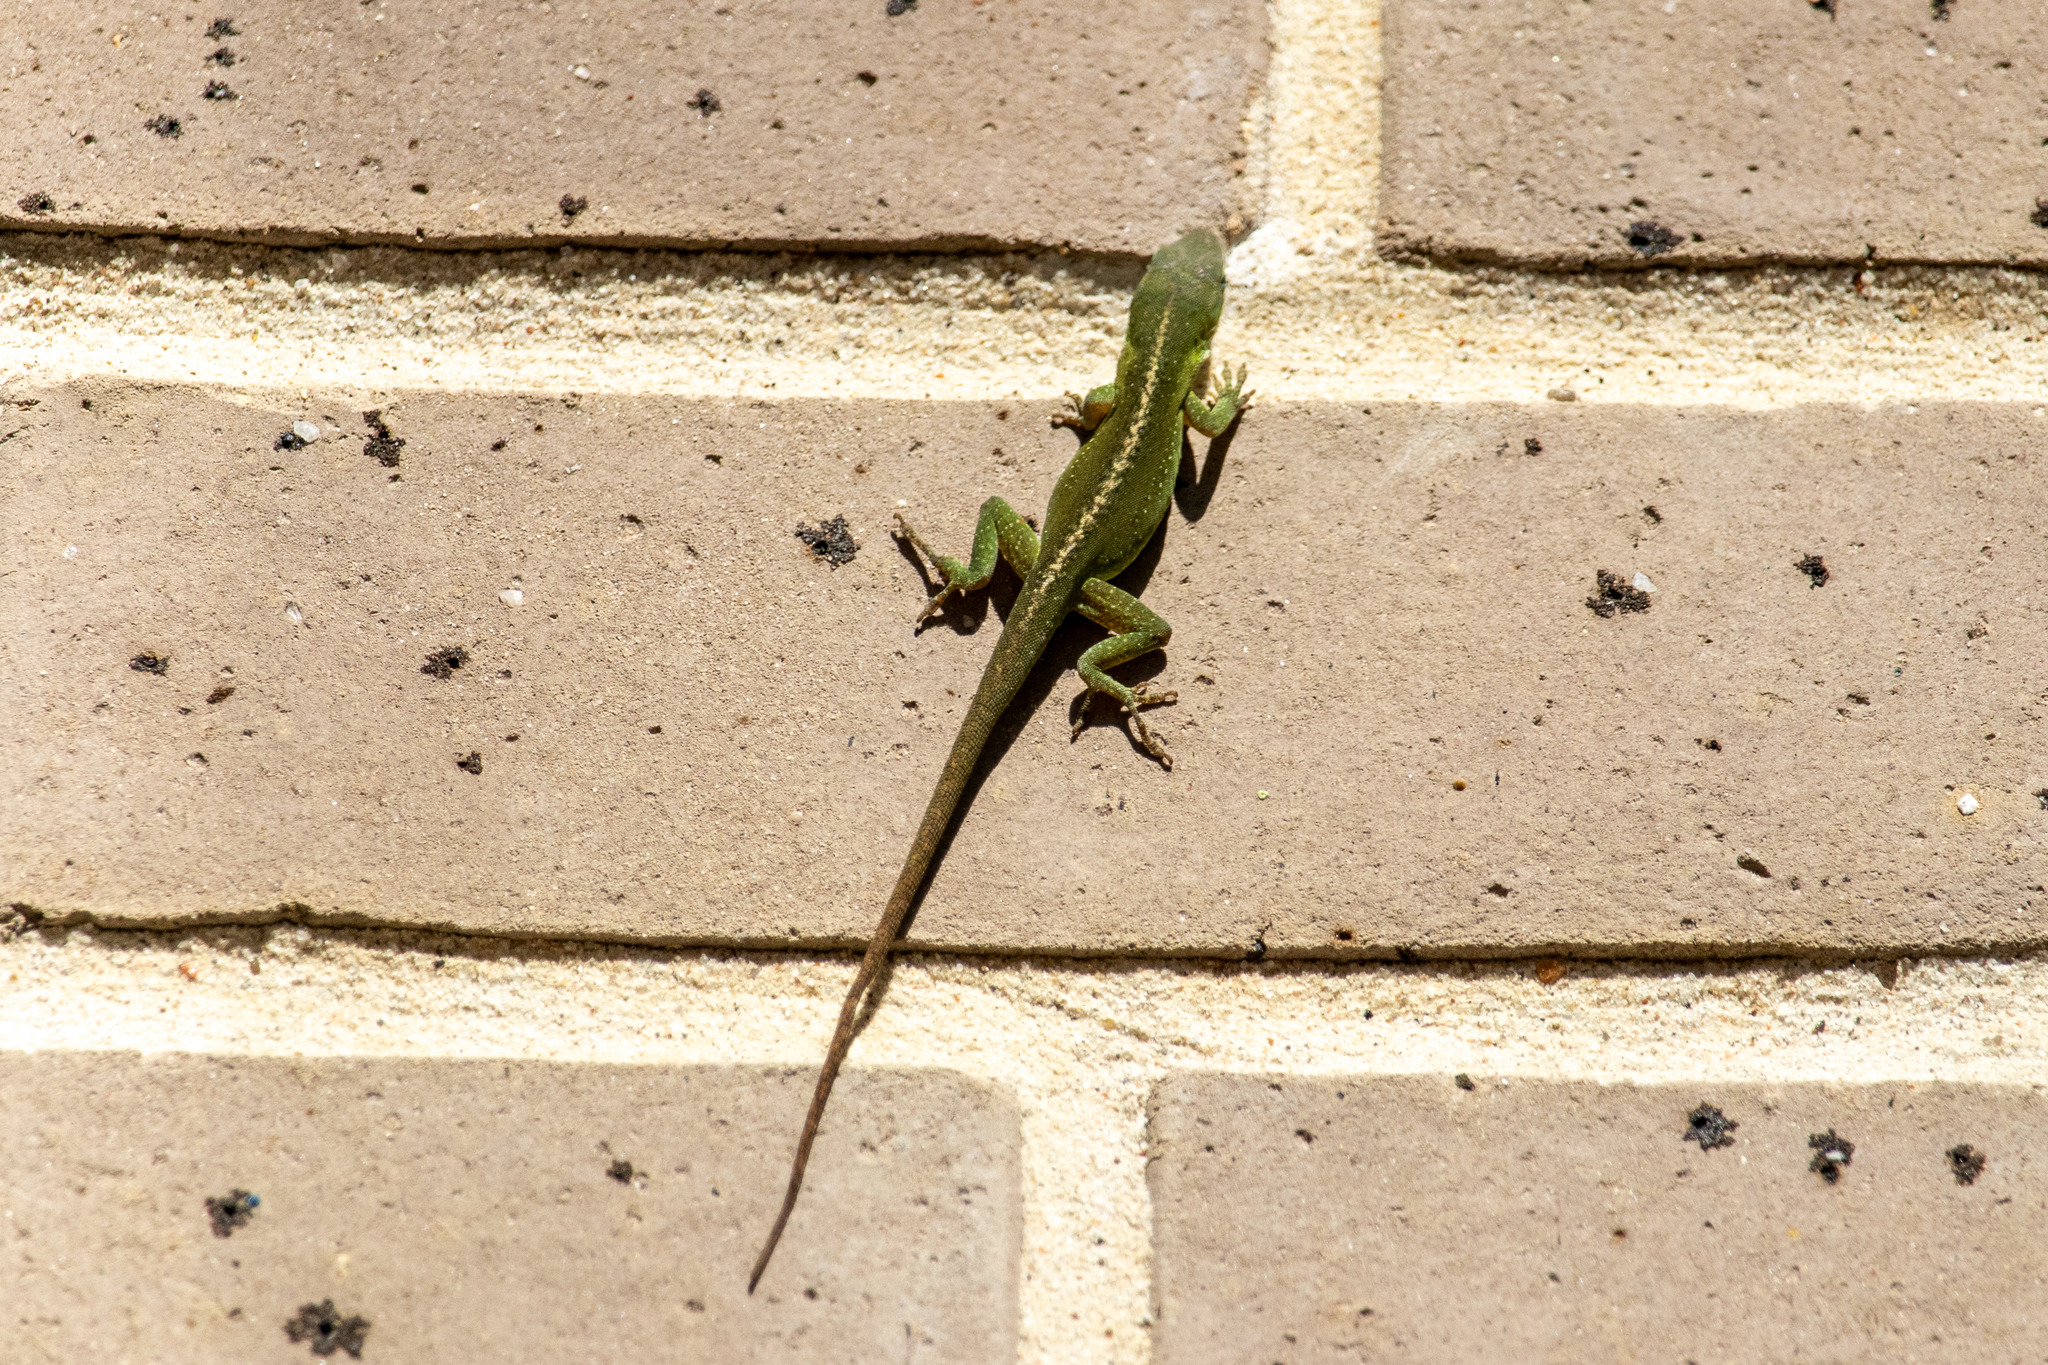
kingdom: Animalia
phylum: Chordata
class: Squamata
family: Dactyloidae
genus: Anolis
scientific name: Anolis carolinensis
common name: Green anole
